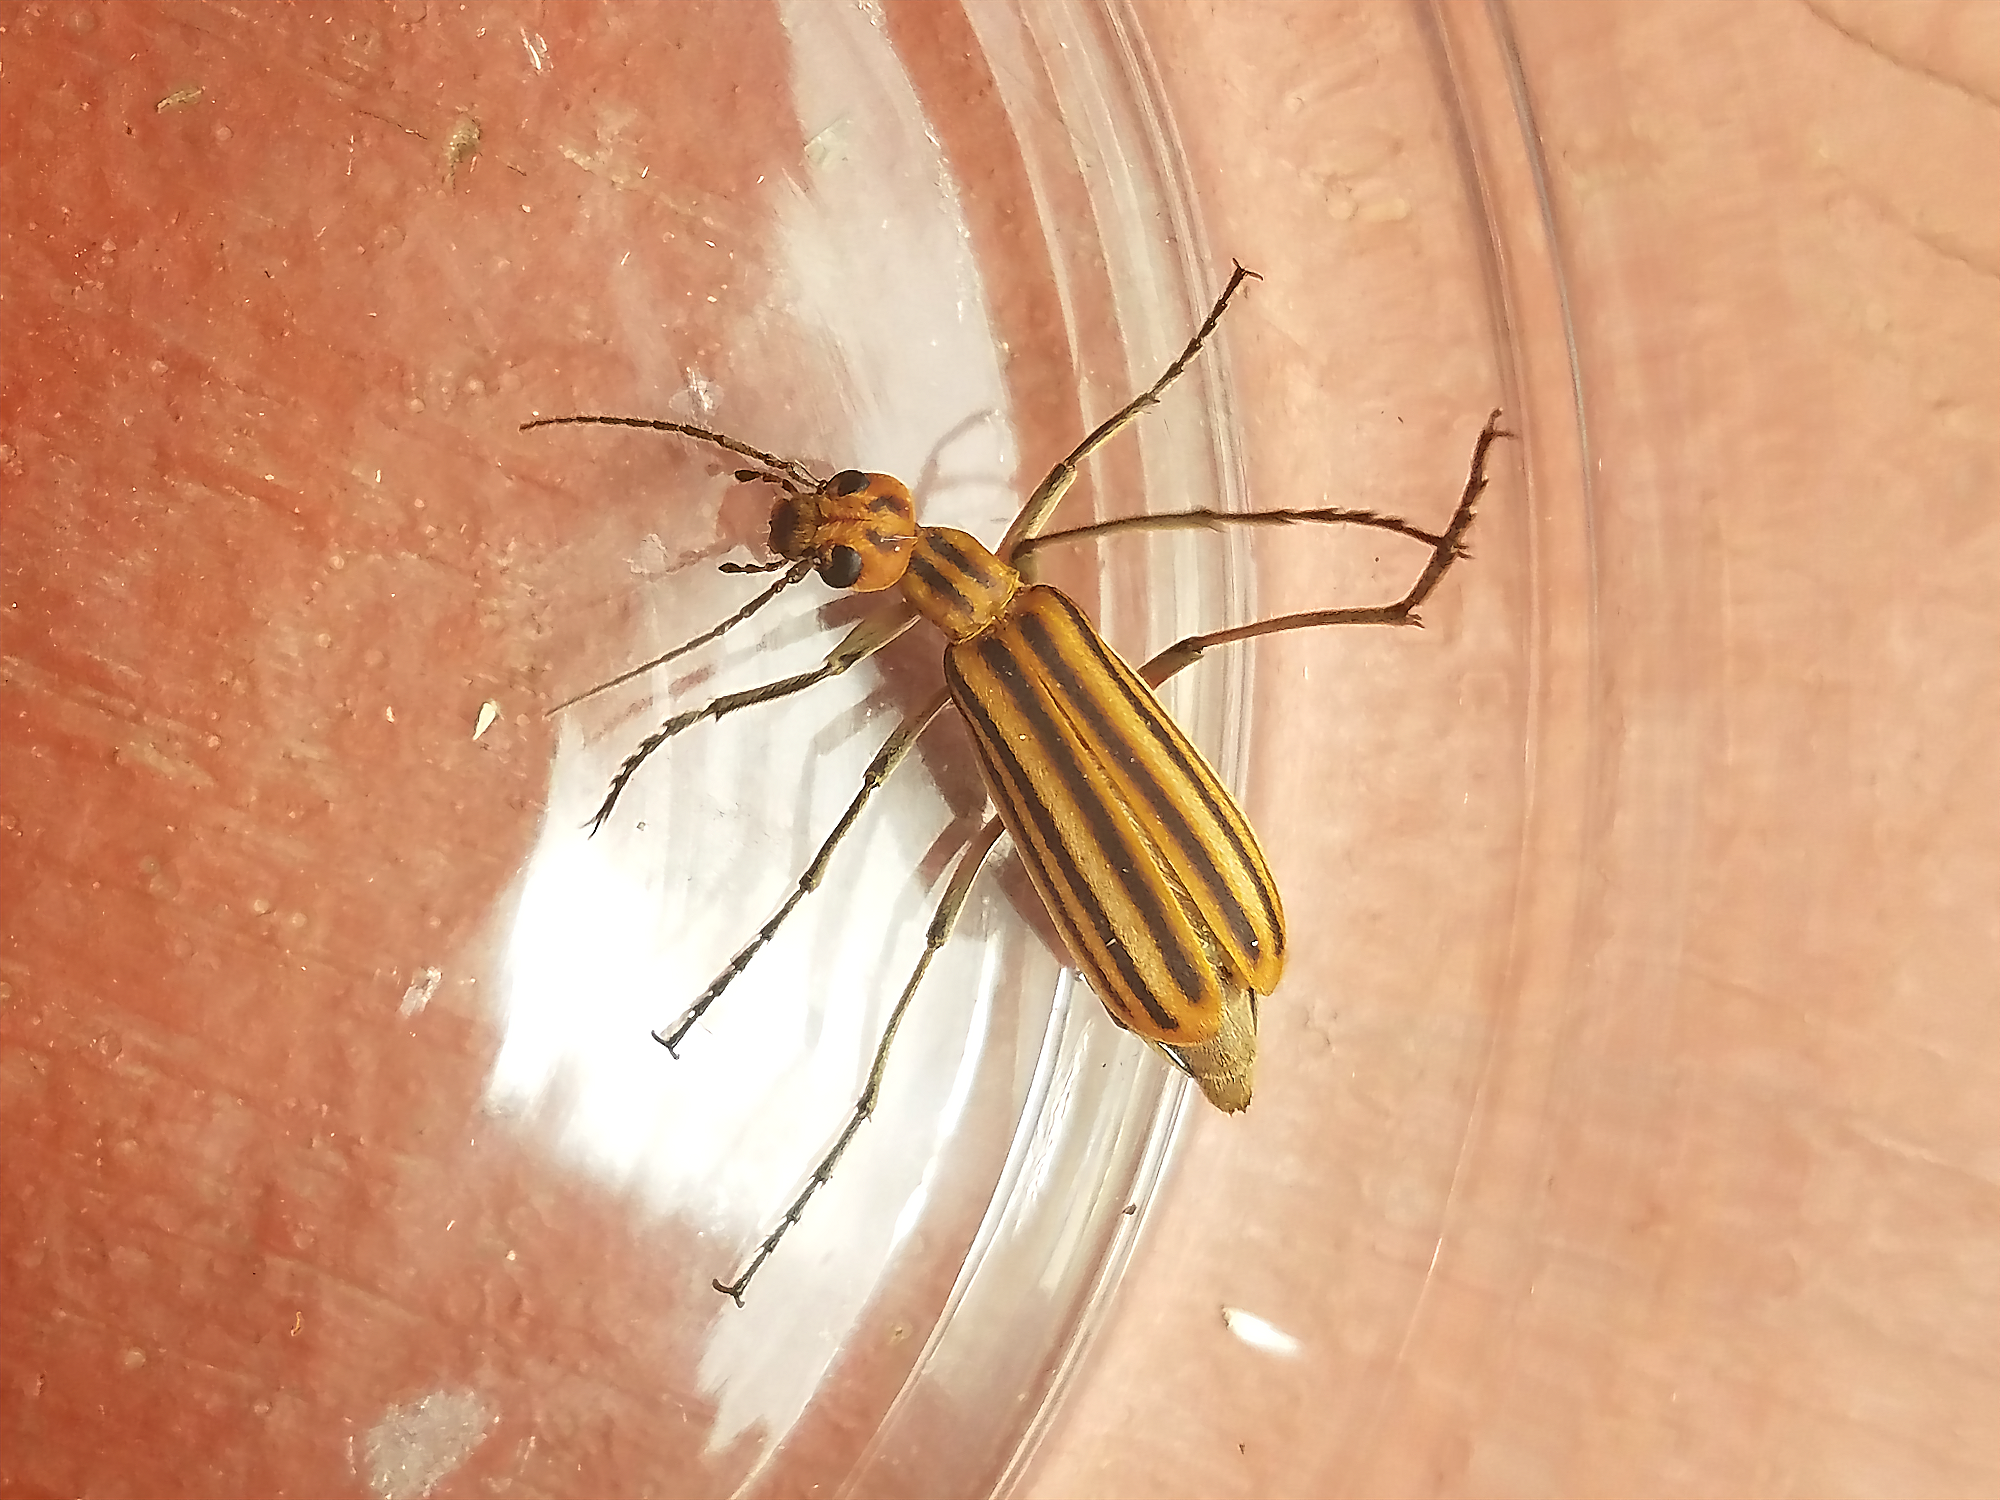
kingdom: Animalia
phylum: Arthropoda
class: Insecta
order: Coleoptera
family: Meloidae
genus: Epicauta
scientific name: Epicauta vittata
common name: Old-fashioned potato beetle
